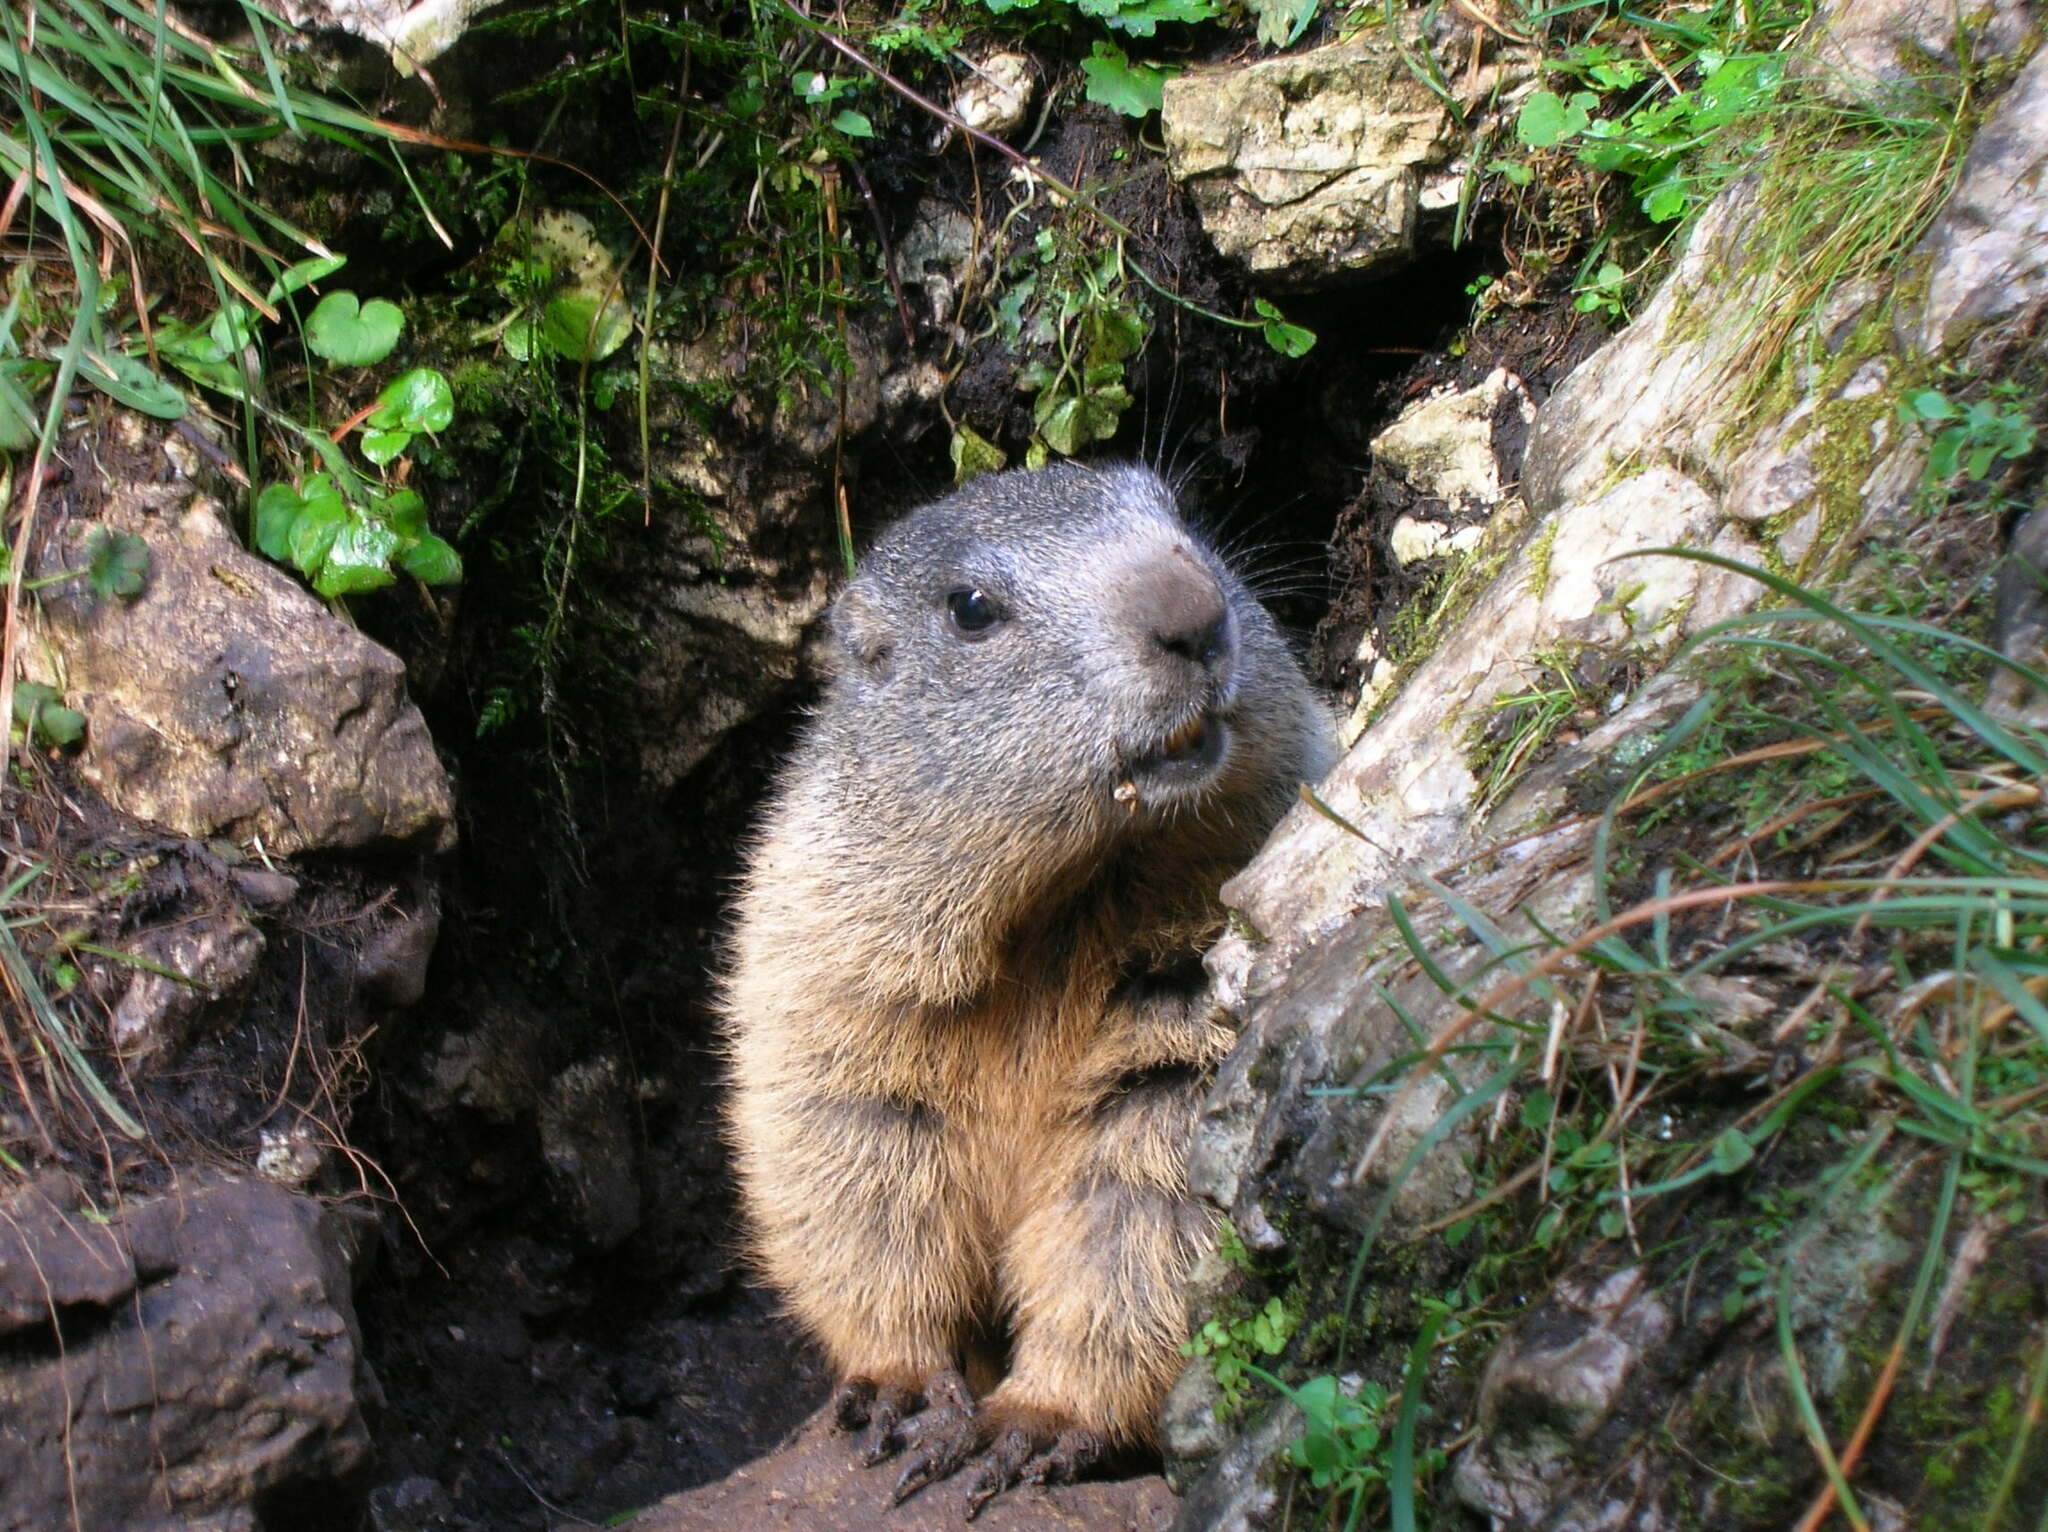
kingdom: Animalia
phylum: Chordata
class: Mammalia
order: Rodentia
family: Sciuridae
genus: Marmota
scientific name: Marmota marmota
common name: Alpine marmot
